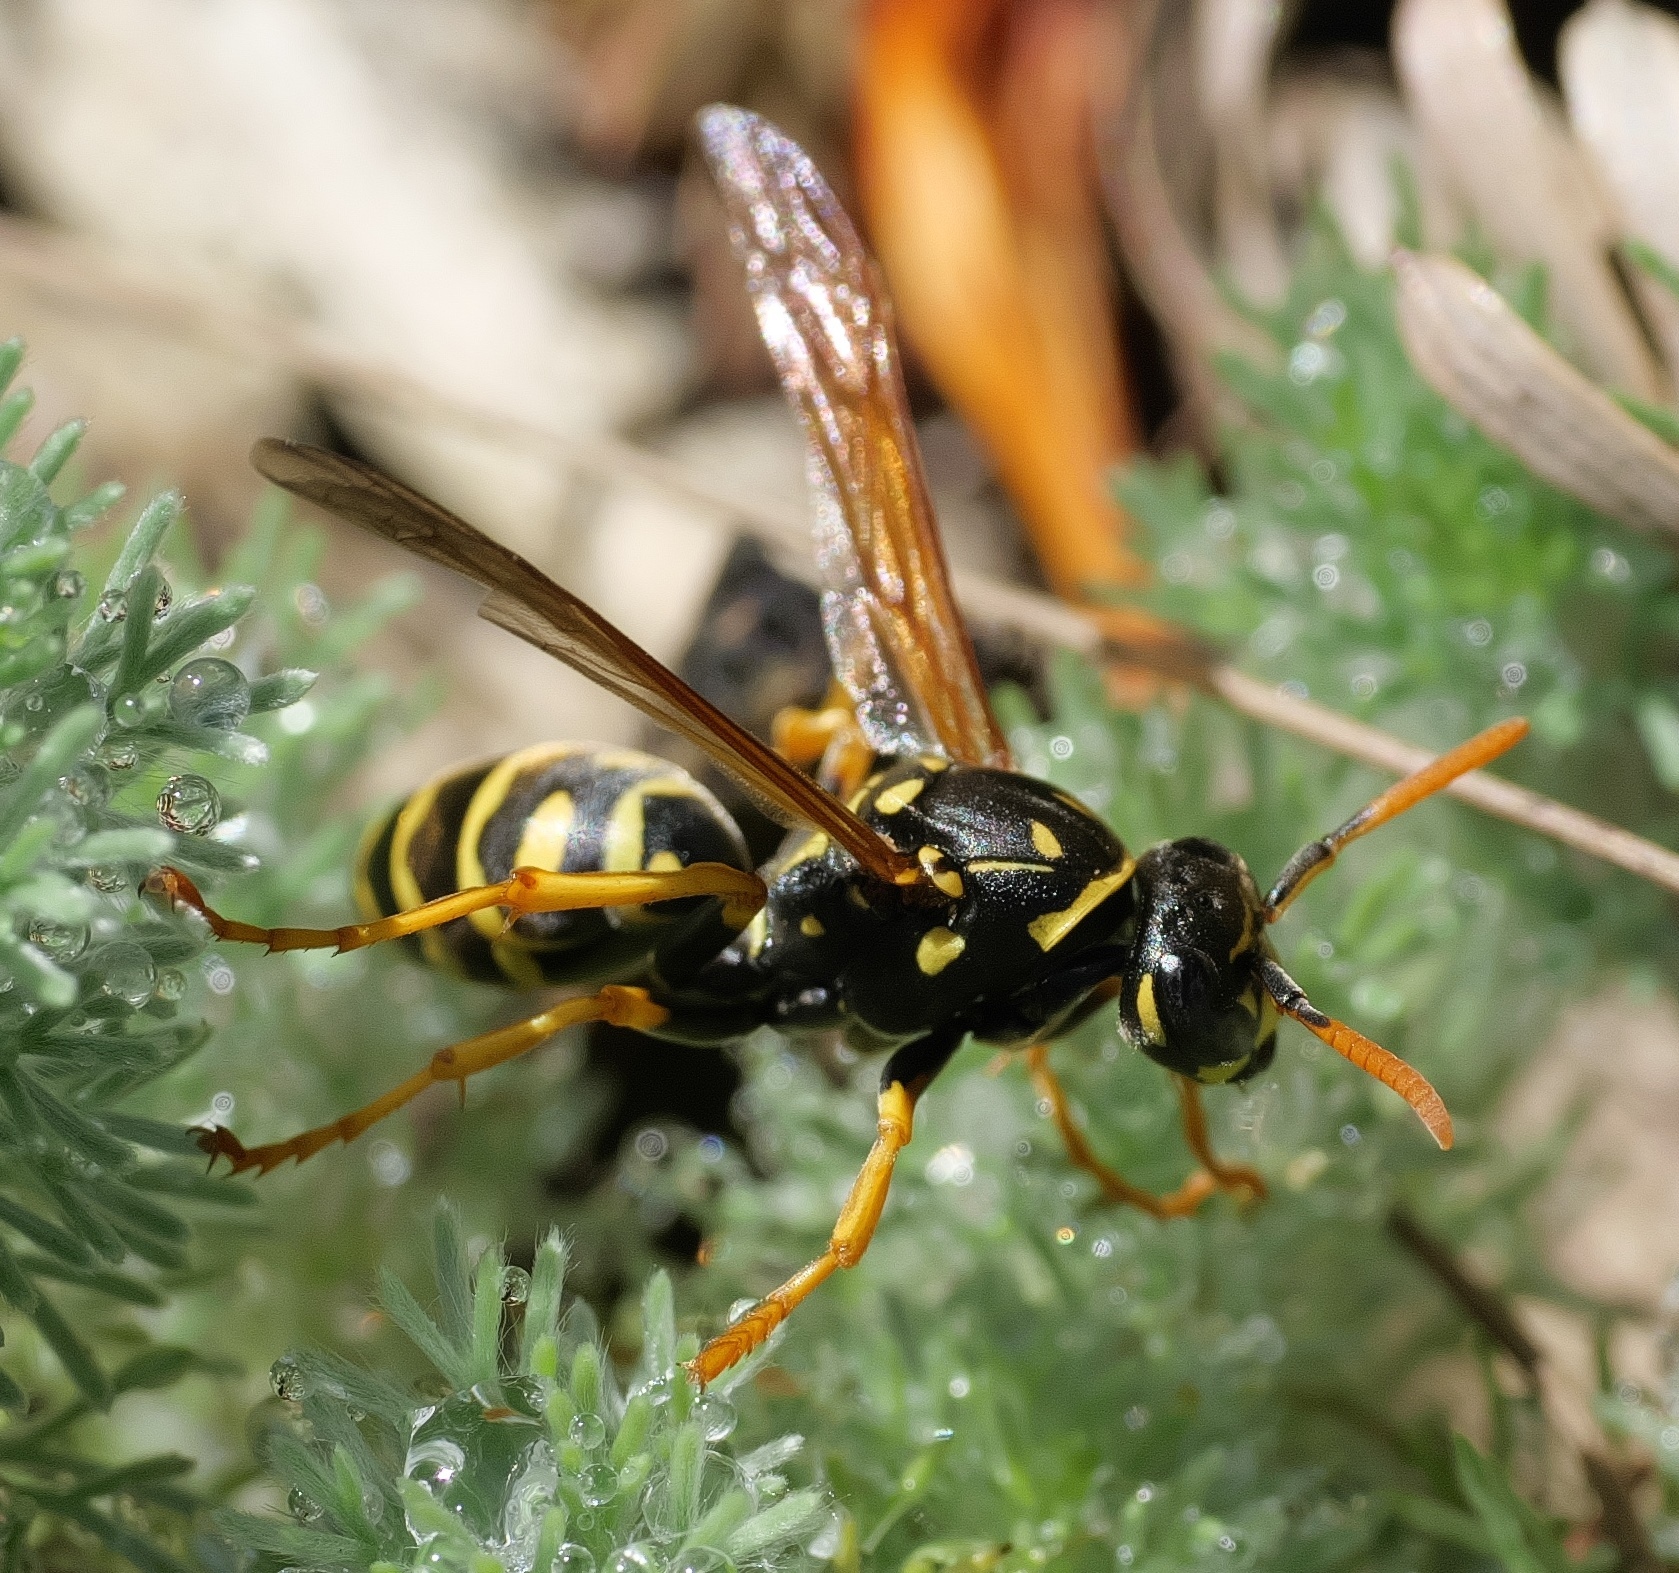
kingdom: Animalia
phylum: Arthropoda
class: Insecta
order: Hymenoptera
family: Eumenidae
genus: Polistes
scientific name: Polistes dominula
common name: Paper wasp
